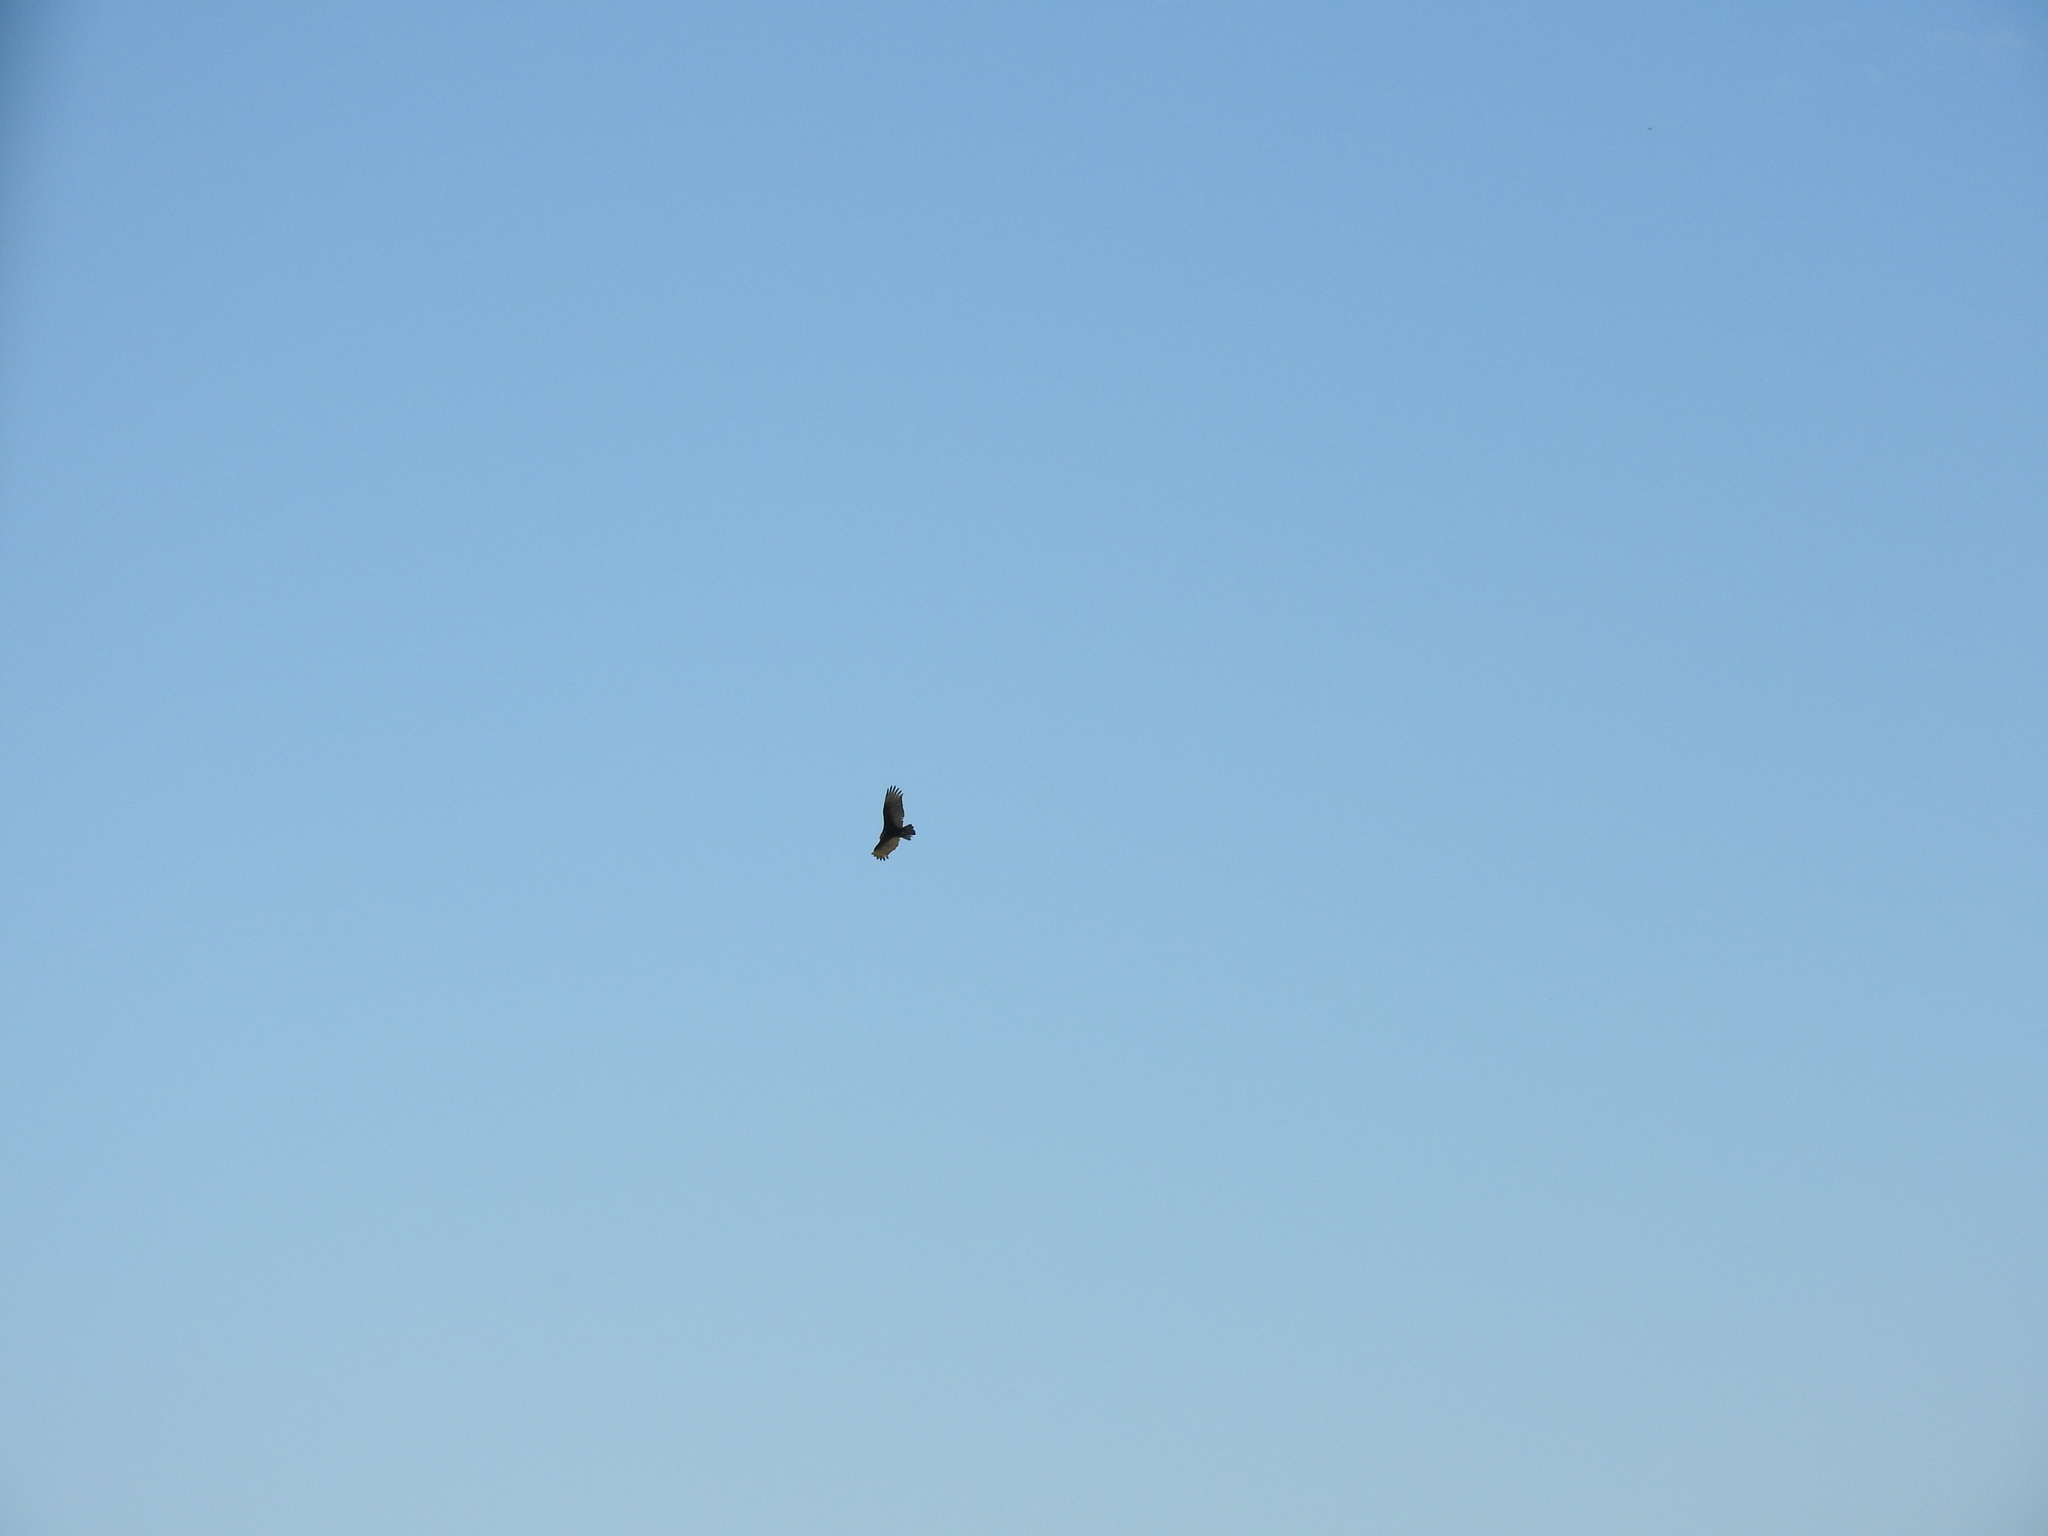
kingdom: Animalia
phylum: Chordata
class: Aves
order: Accipitriformes
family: Cathartidae
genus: Cathartes
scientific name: Cathartes aura
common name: Turkey vulture
